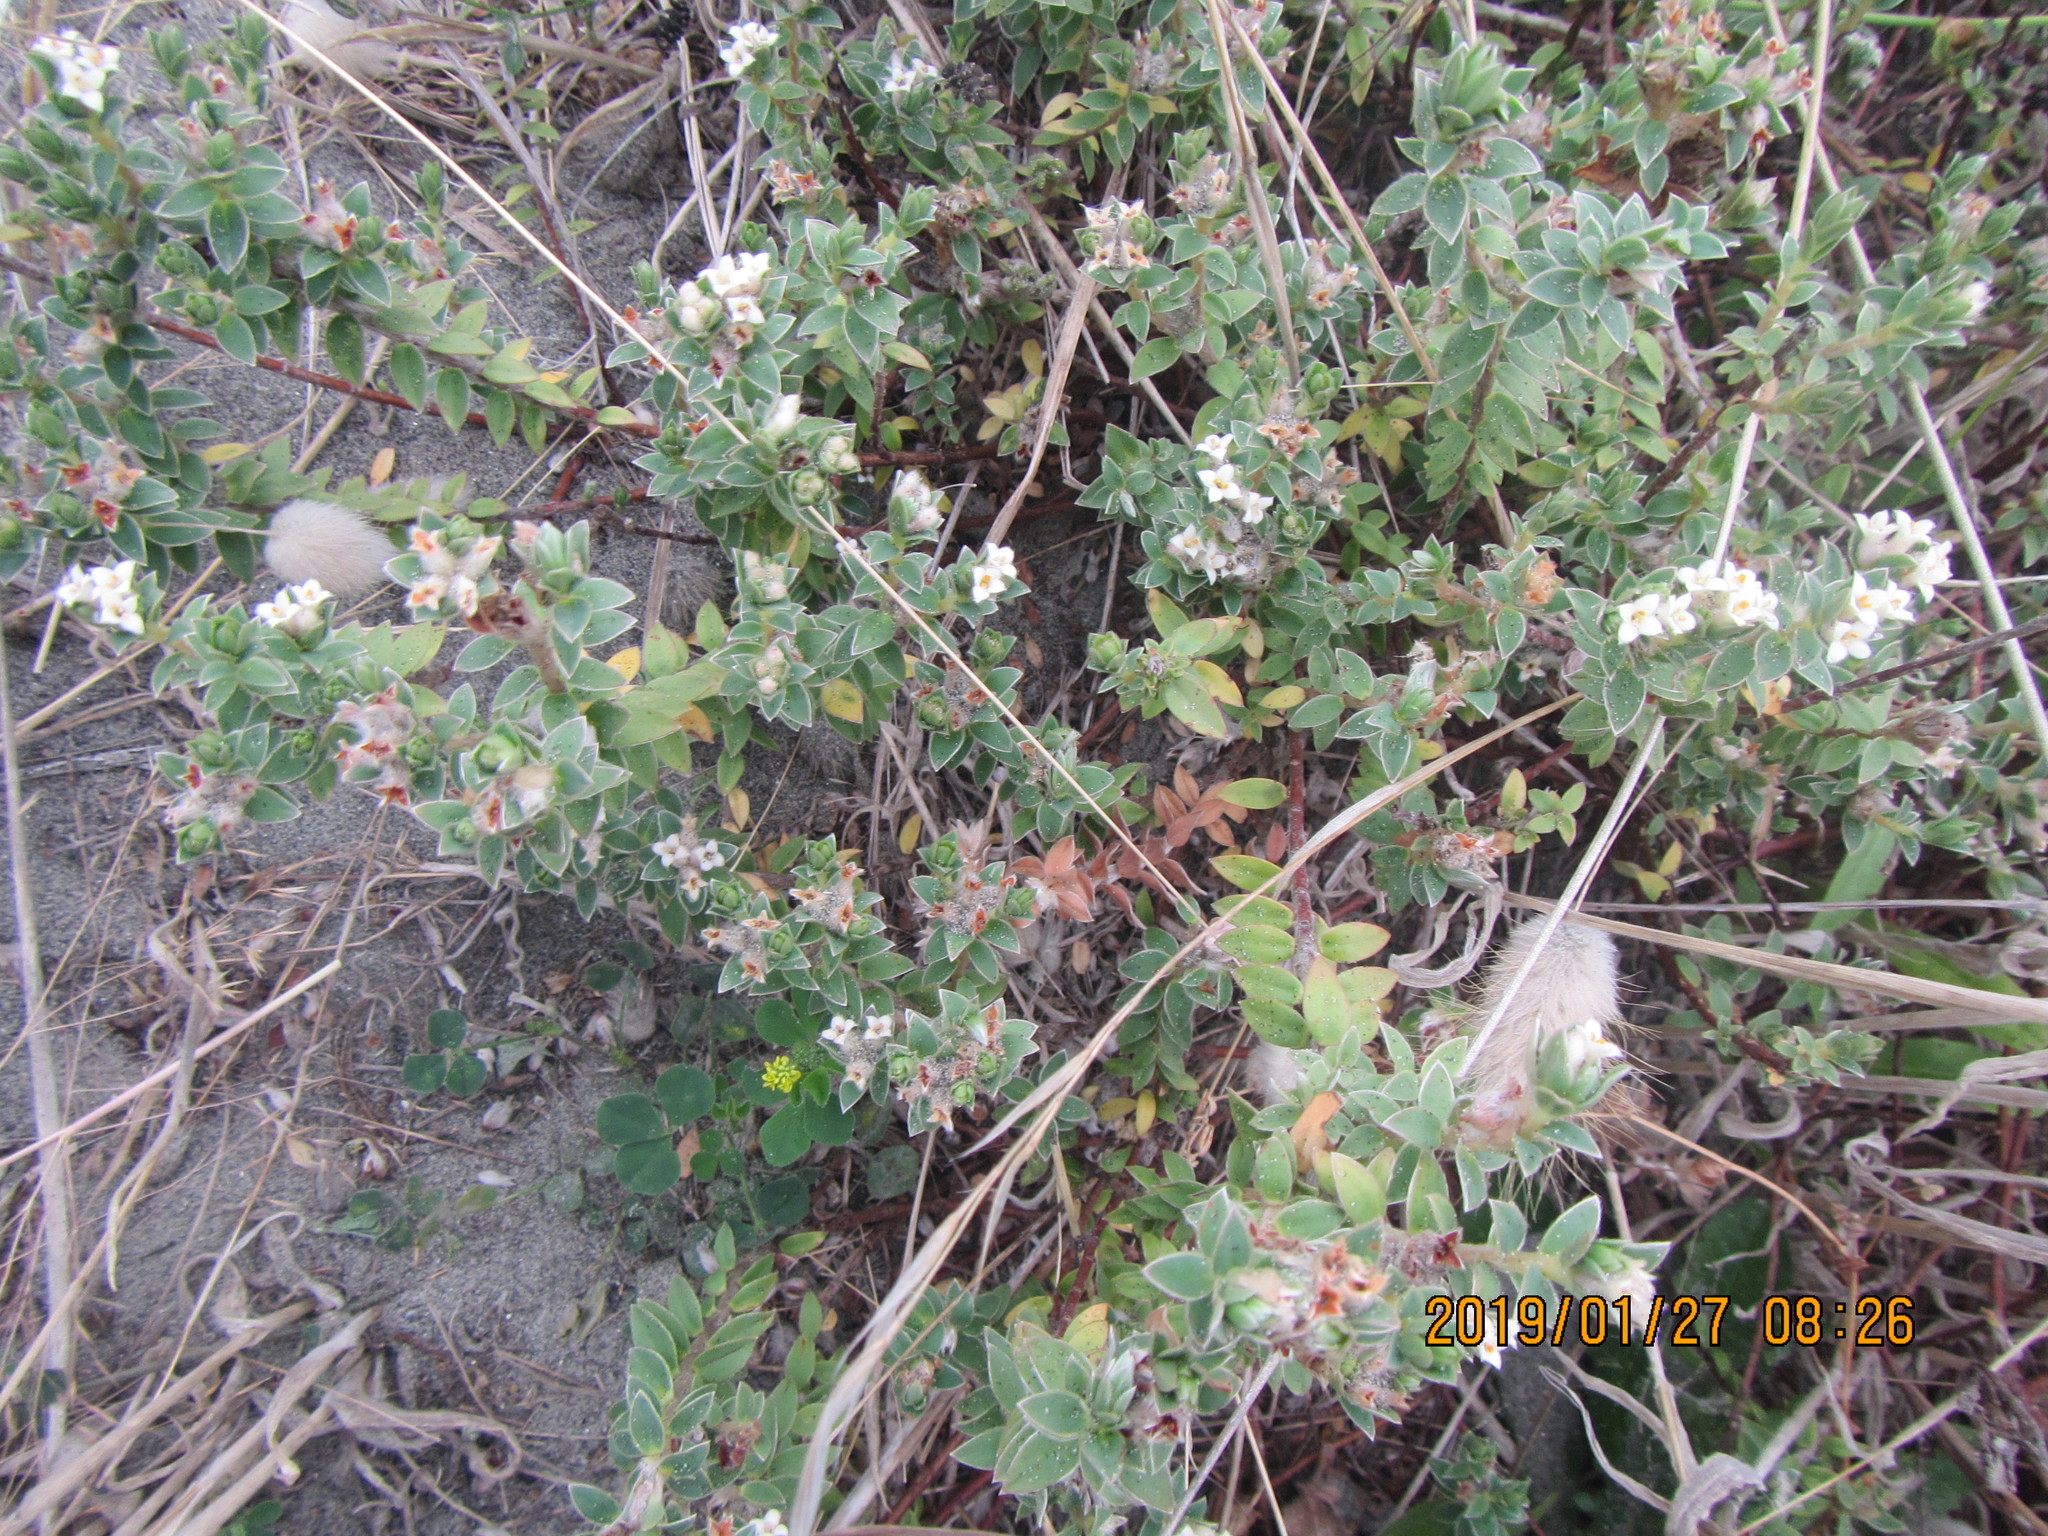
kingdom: Plantae
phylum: Tracheophyta
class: Magnoliopsida
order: Malvales
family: Thymelaeaceae
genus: Pimelea
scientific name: Pimelea villosa
